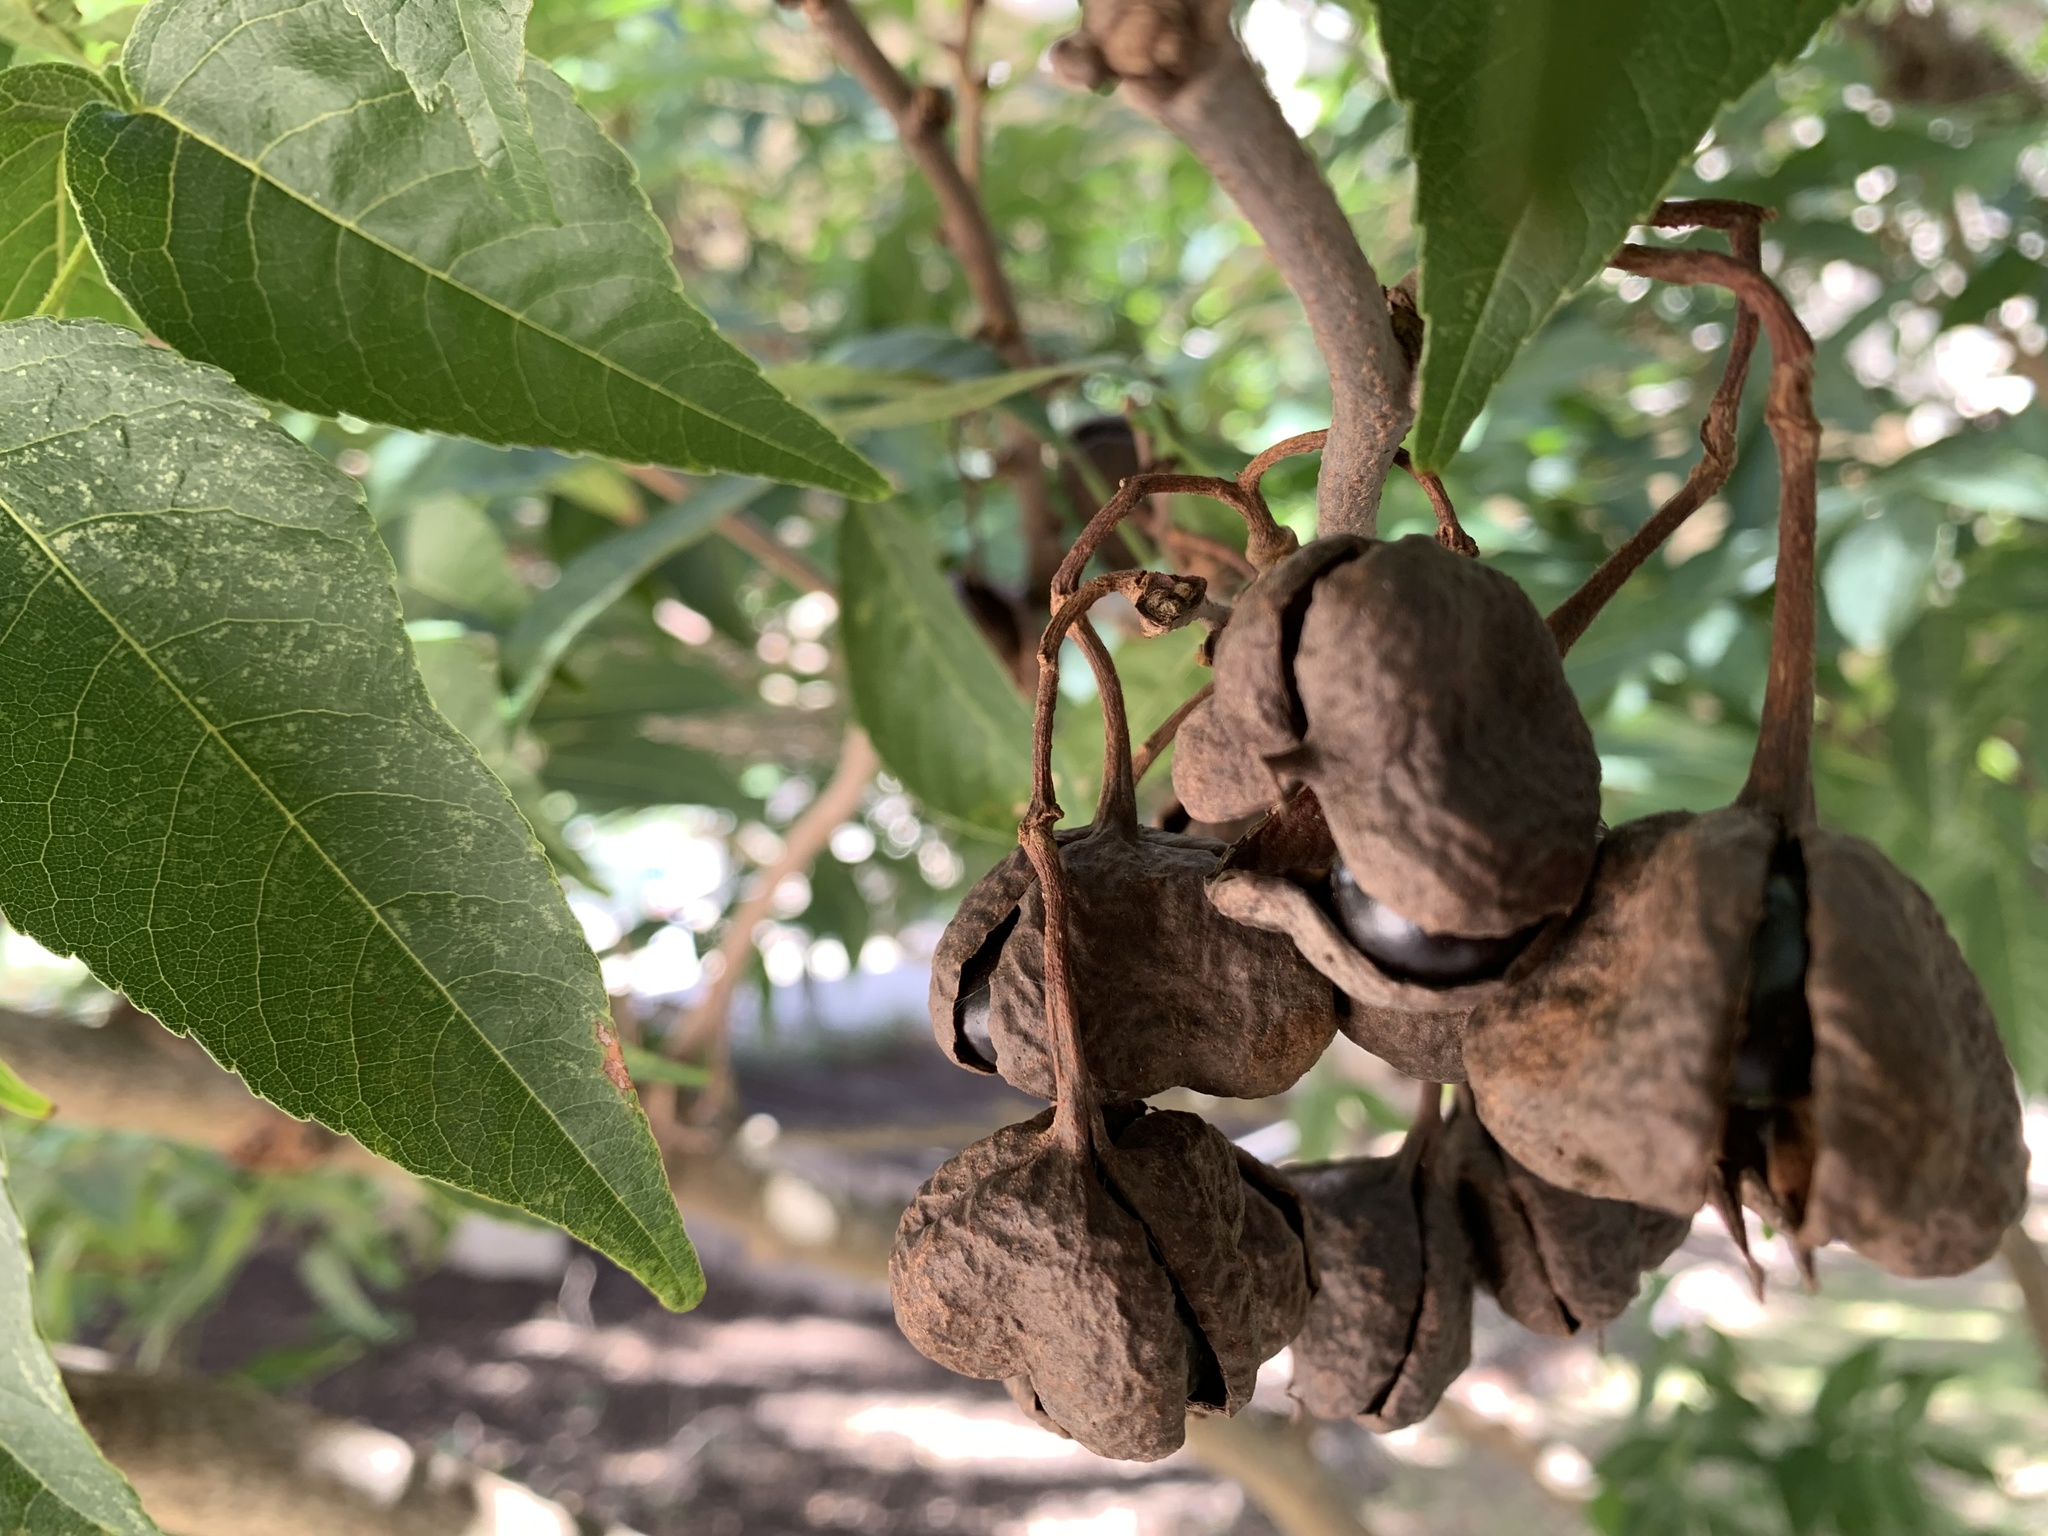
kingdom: Plantae
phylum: Tracheophyta
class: Magnoliopsida
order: Sapindales
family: Sapindaceae
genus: Ungnadia
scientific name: Ungnadia speciosa
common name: Texas-buckeye
